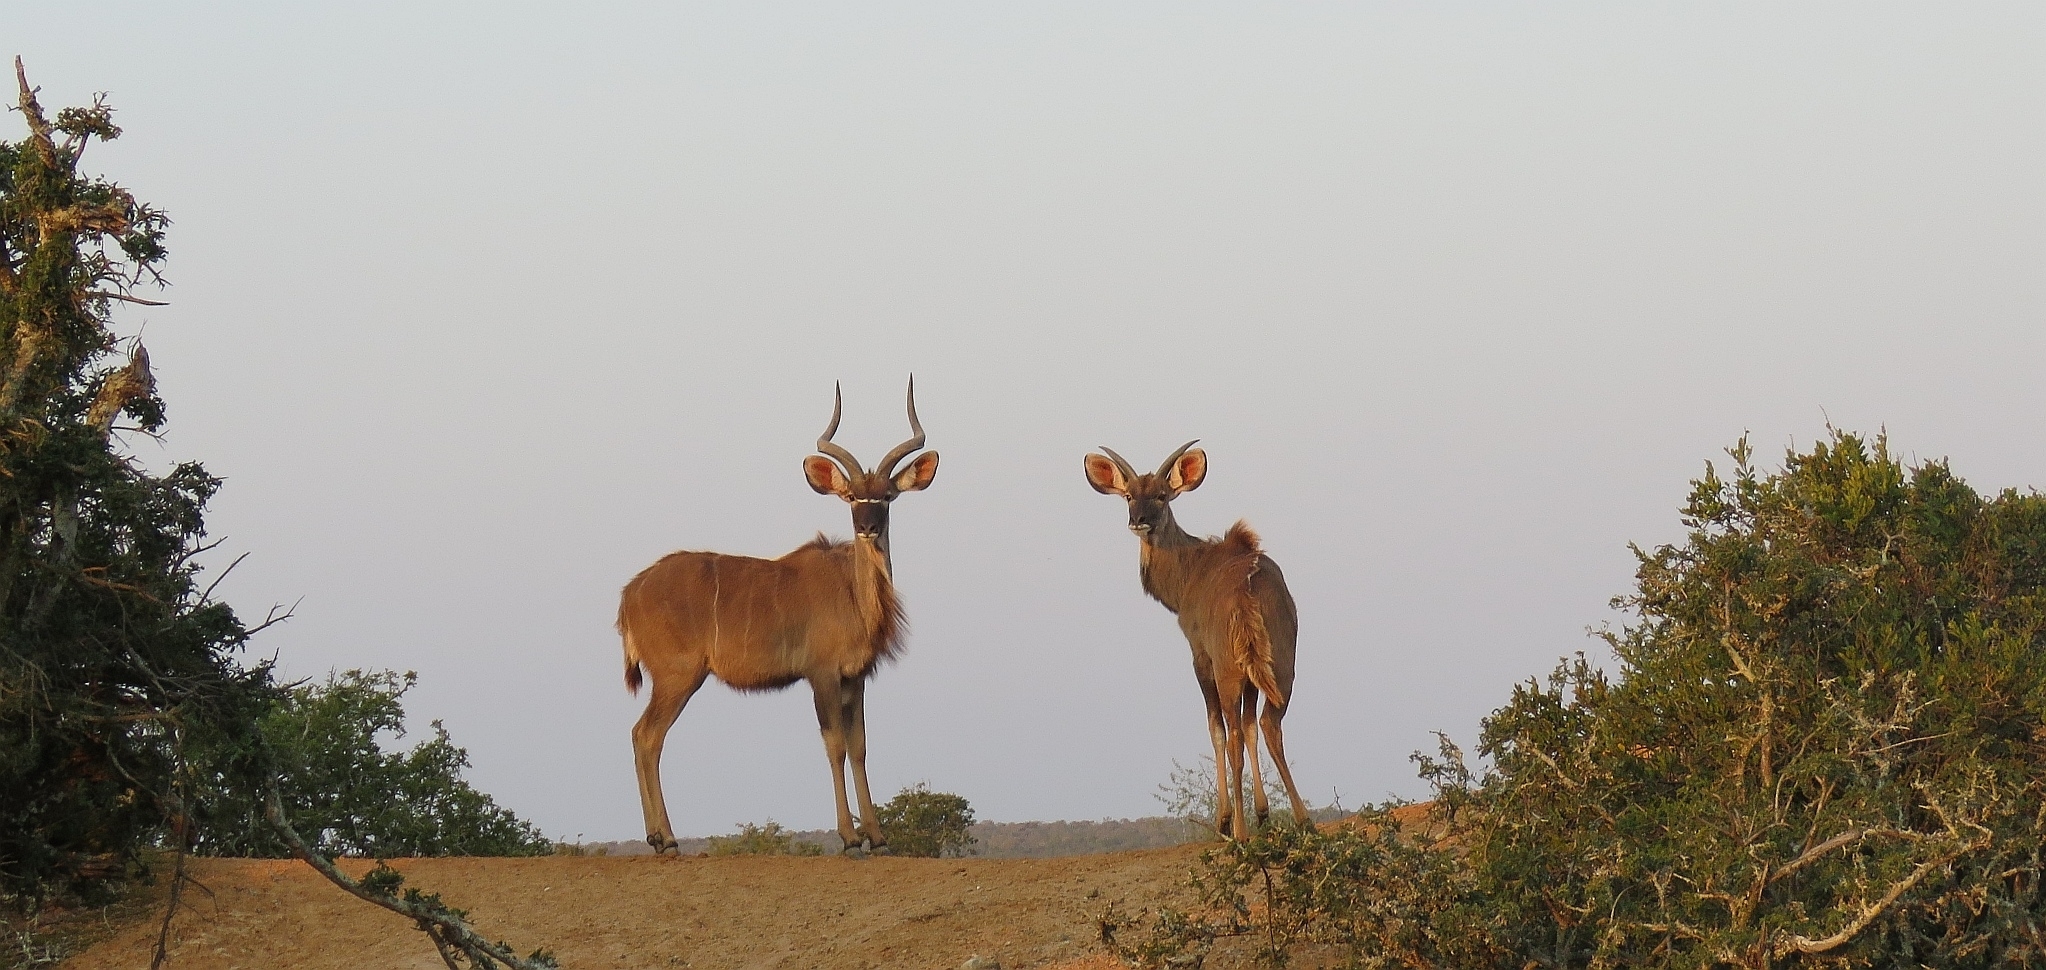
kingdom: Animalia
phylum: Chordata
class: Mammalia
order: Artiodactyla
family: Bovidae
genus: Tragelaphus
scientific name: Tragelaphus strepsiceros
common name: Greater kudu
